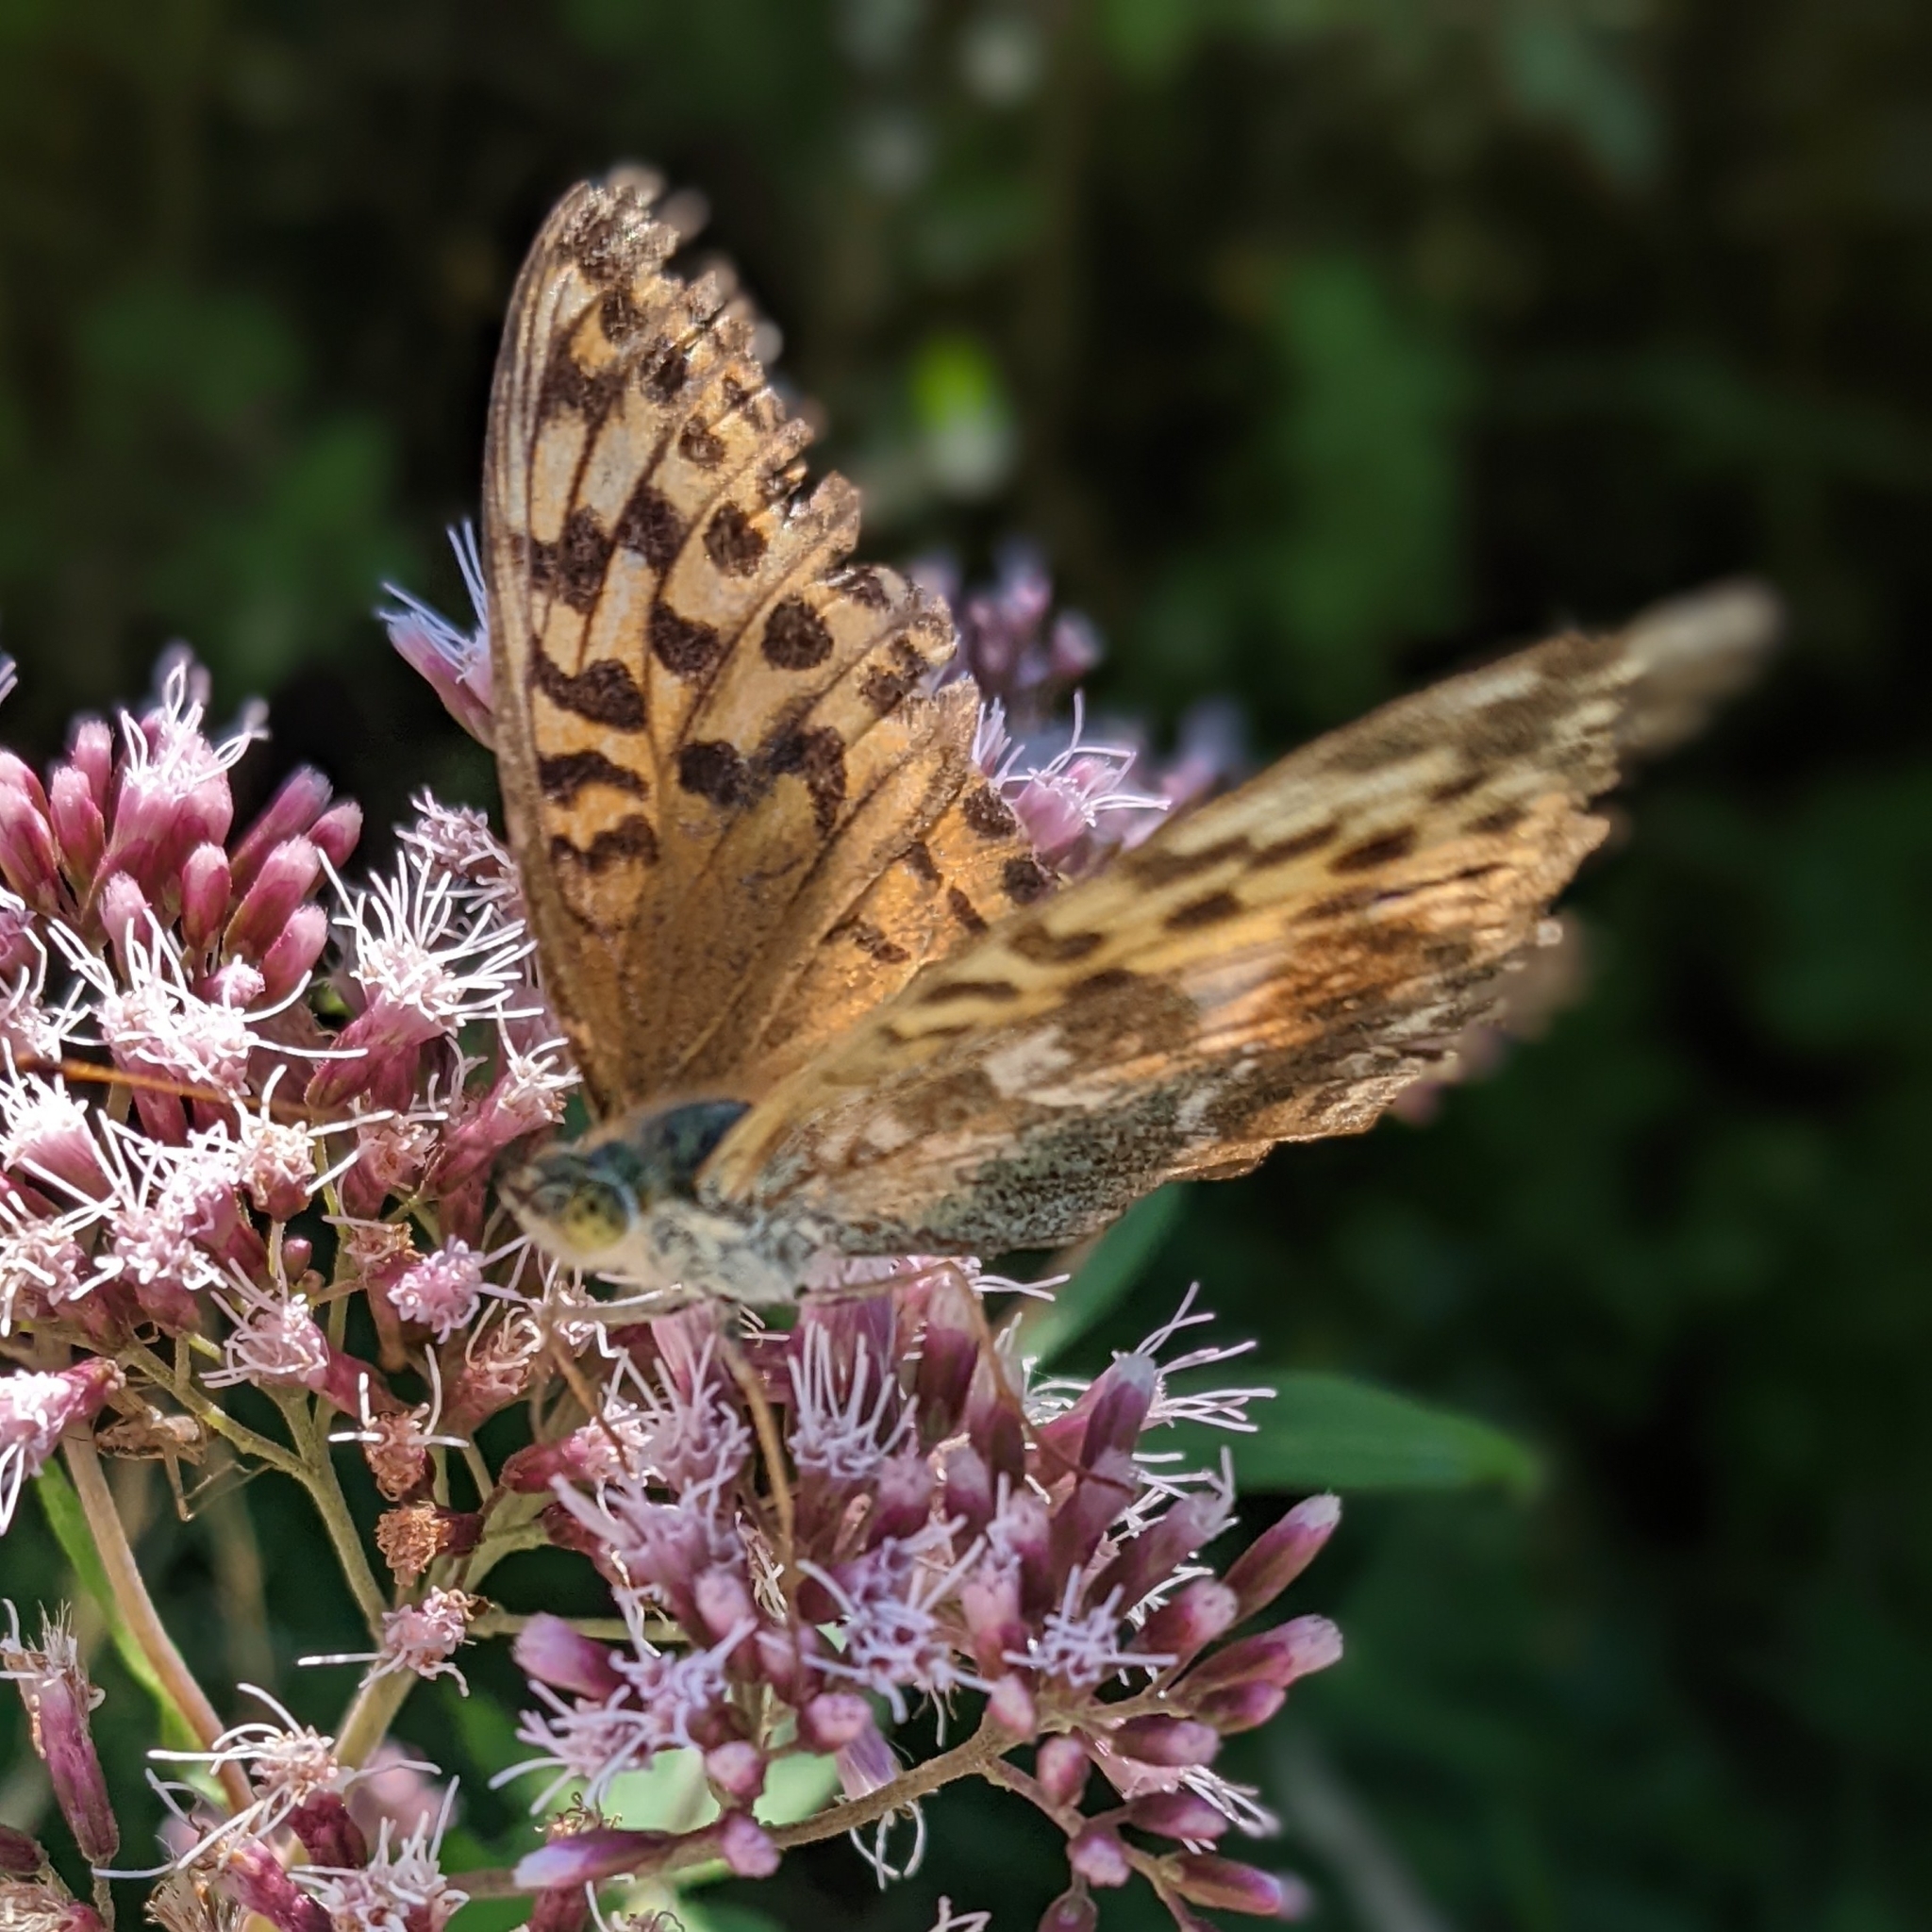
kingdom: Animalia
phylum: Arthropoda
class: Insecta
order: Lepidoptera
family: Nymphalidae
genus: Argynnis
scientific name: Argynnis paphia
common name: Silver-washed fritillary
